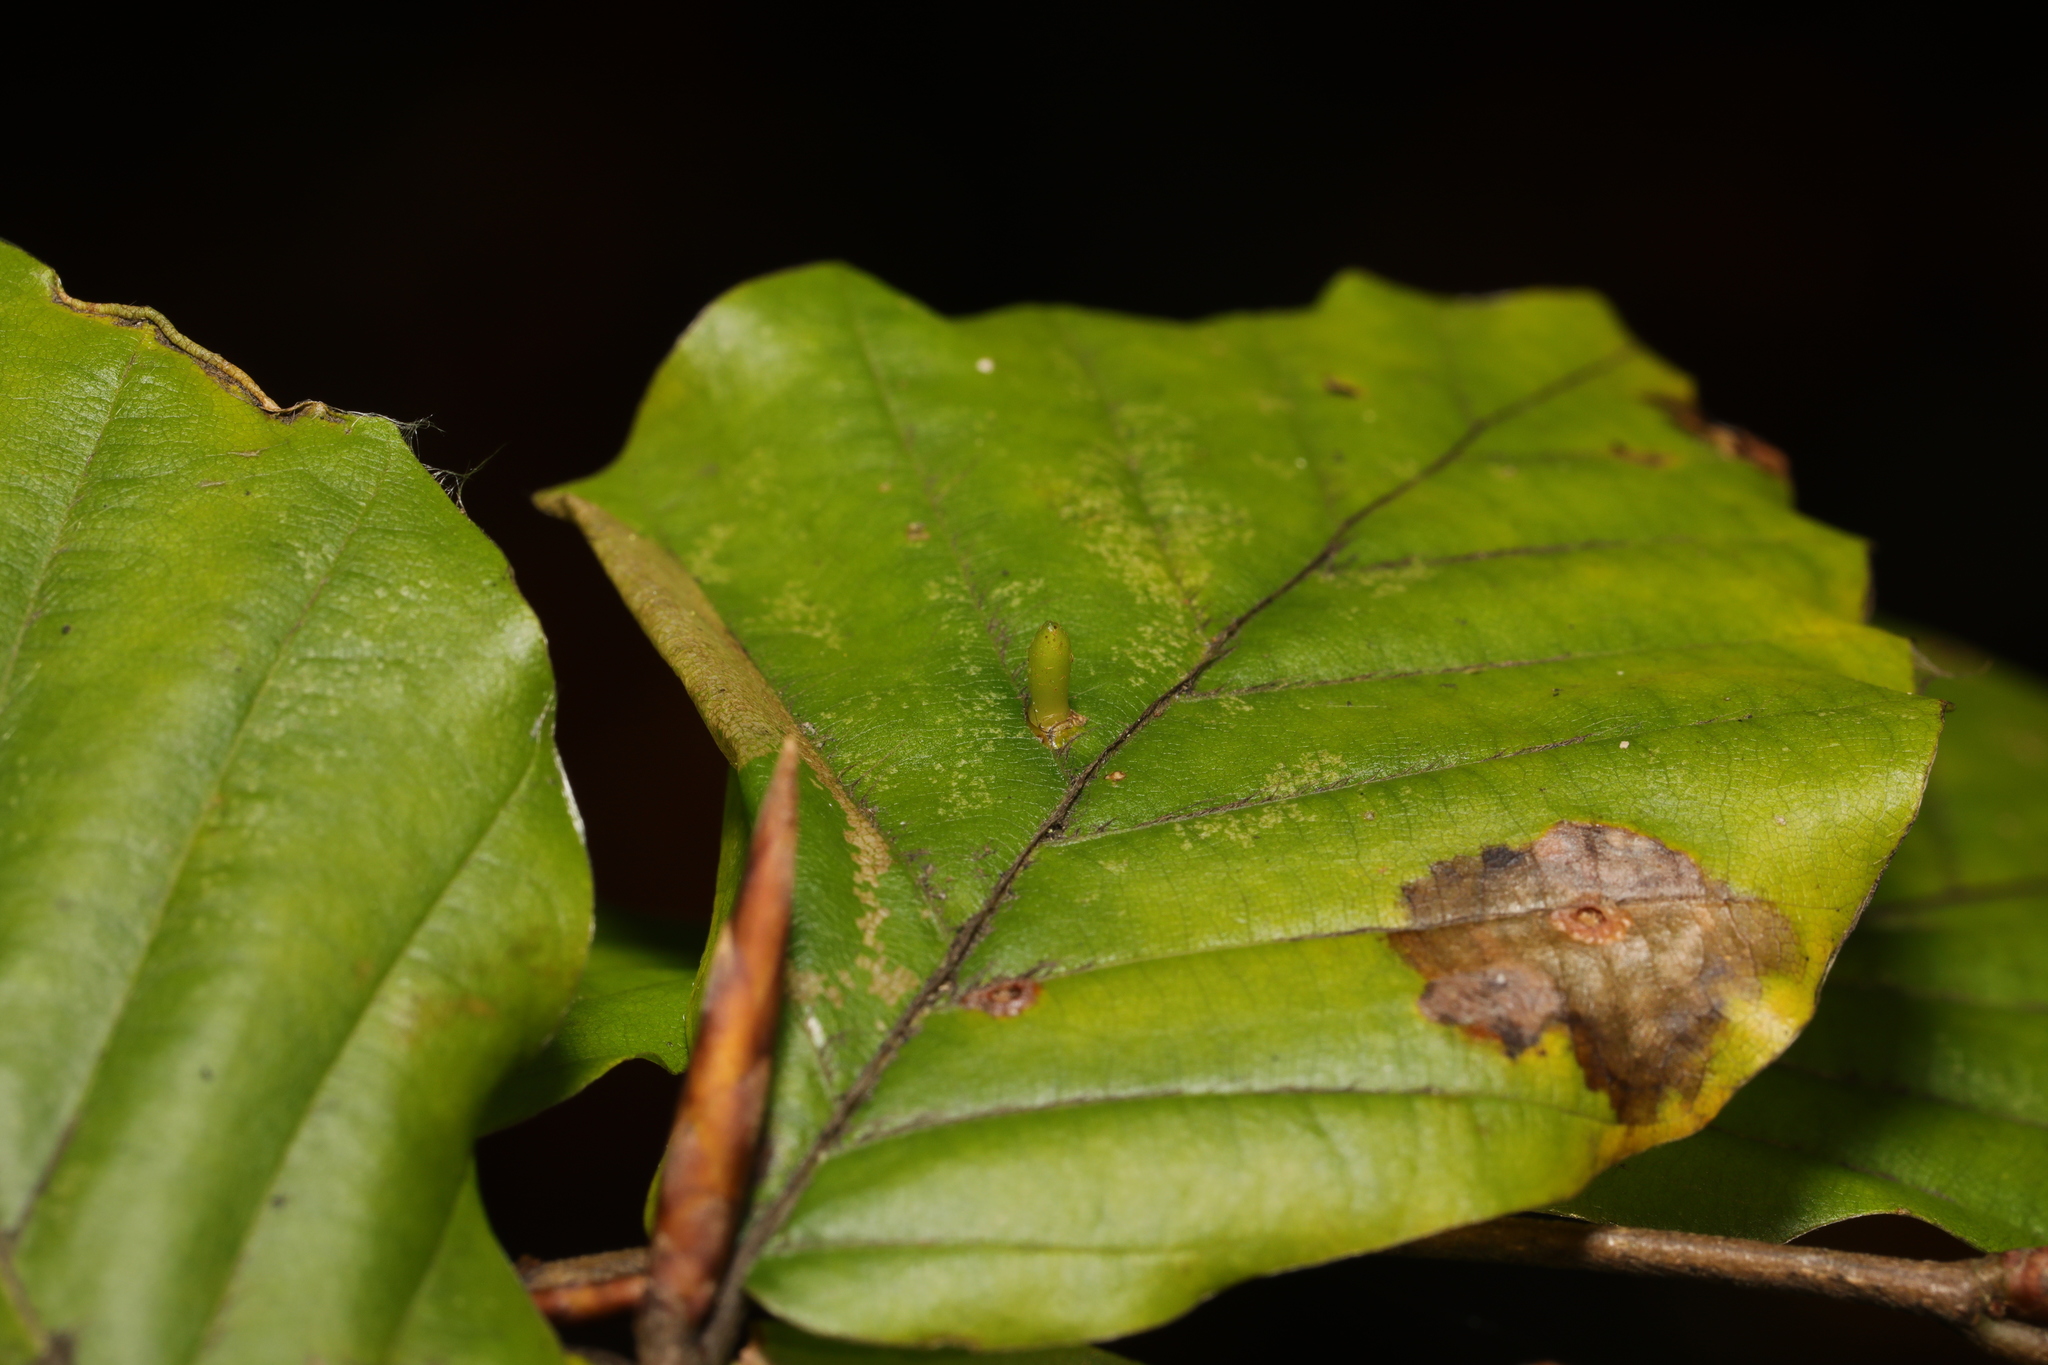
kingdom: Animalia
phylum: Arthropoda
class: Insecta
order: Diptera
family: Cecidomyiidae
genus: Hartigiola
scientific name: Hartigiola annulipes
